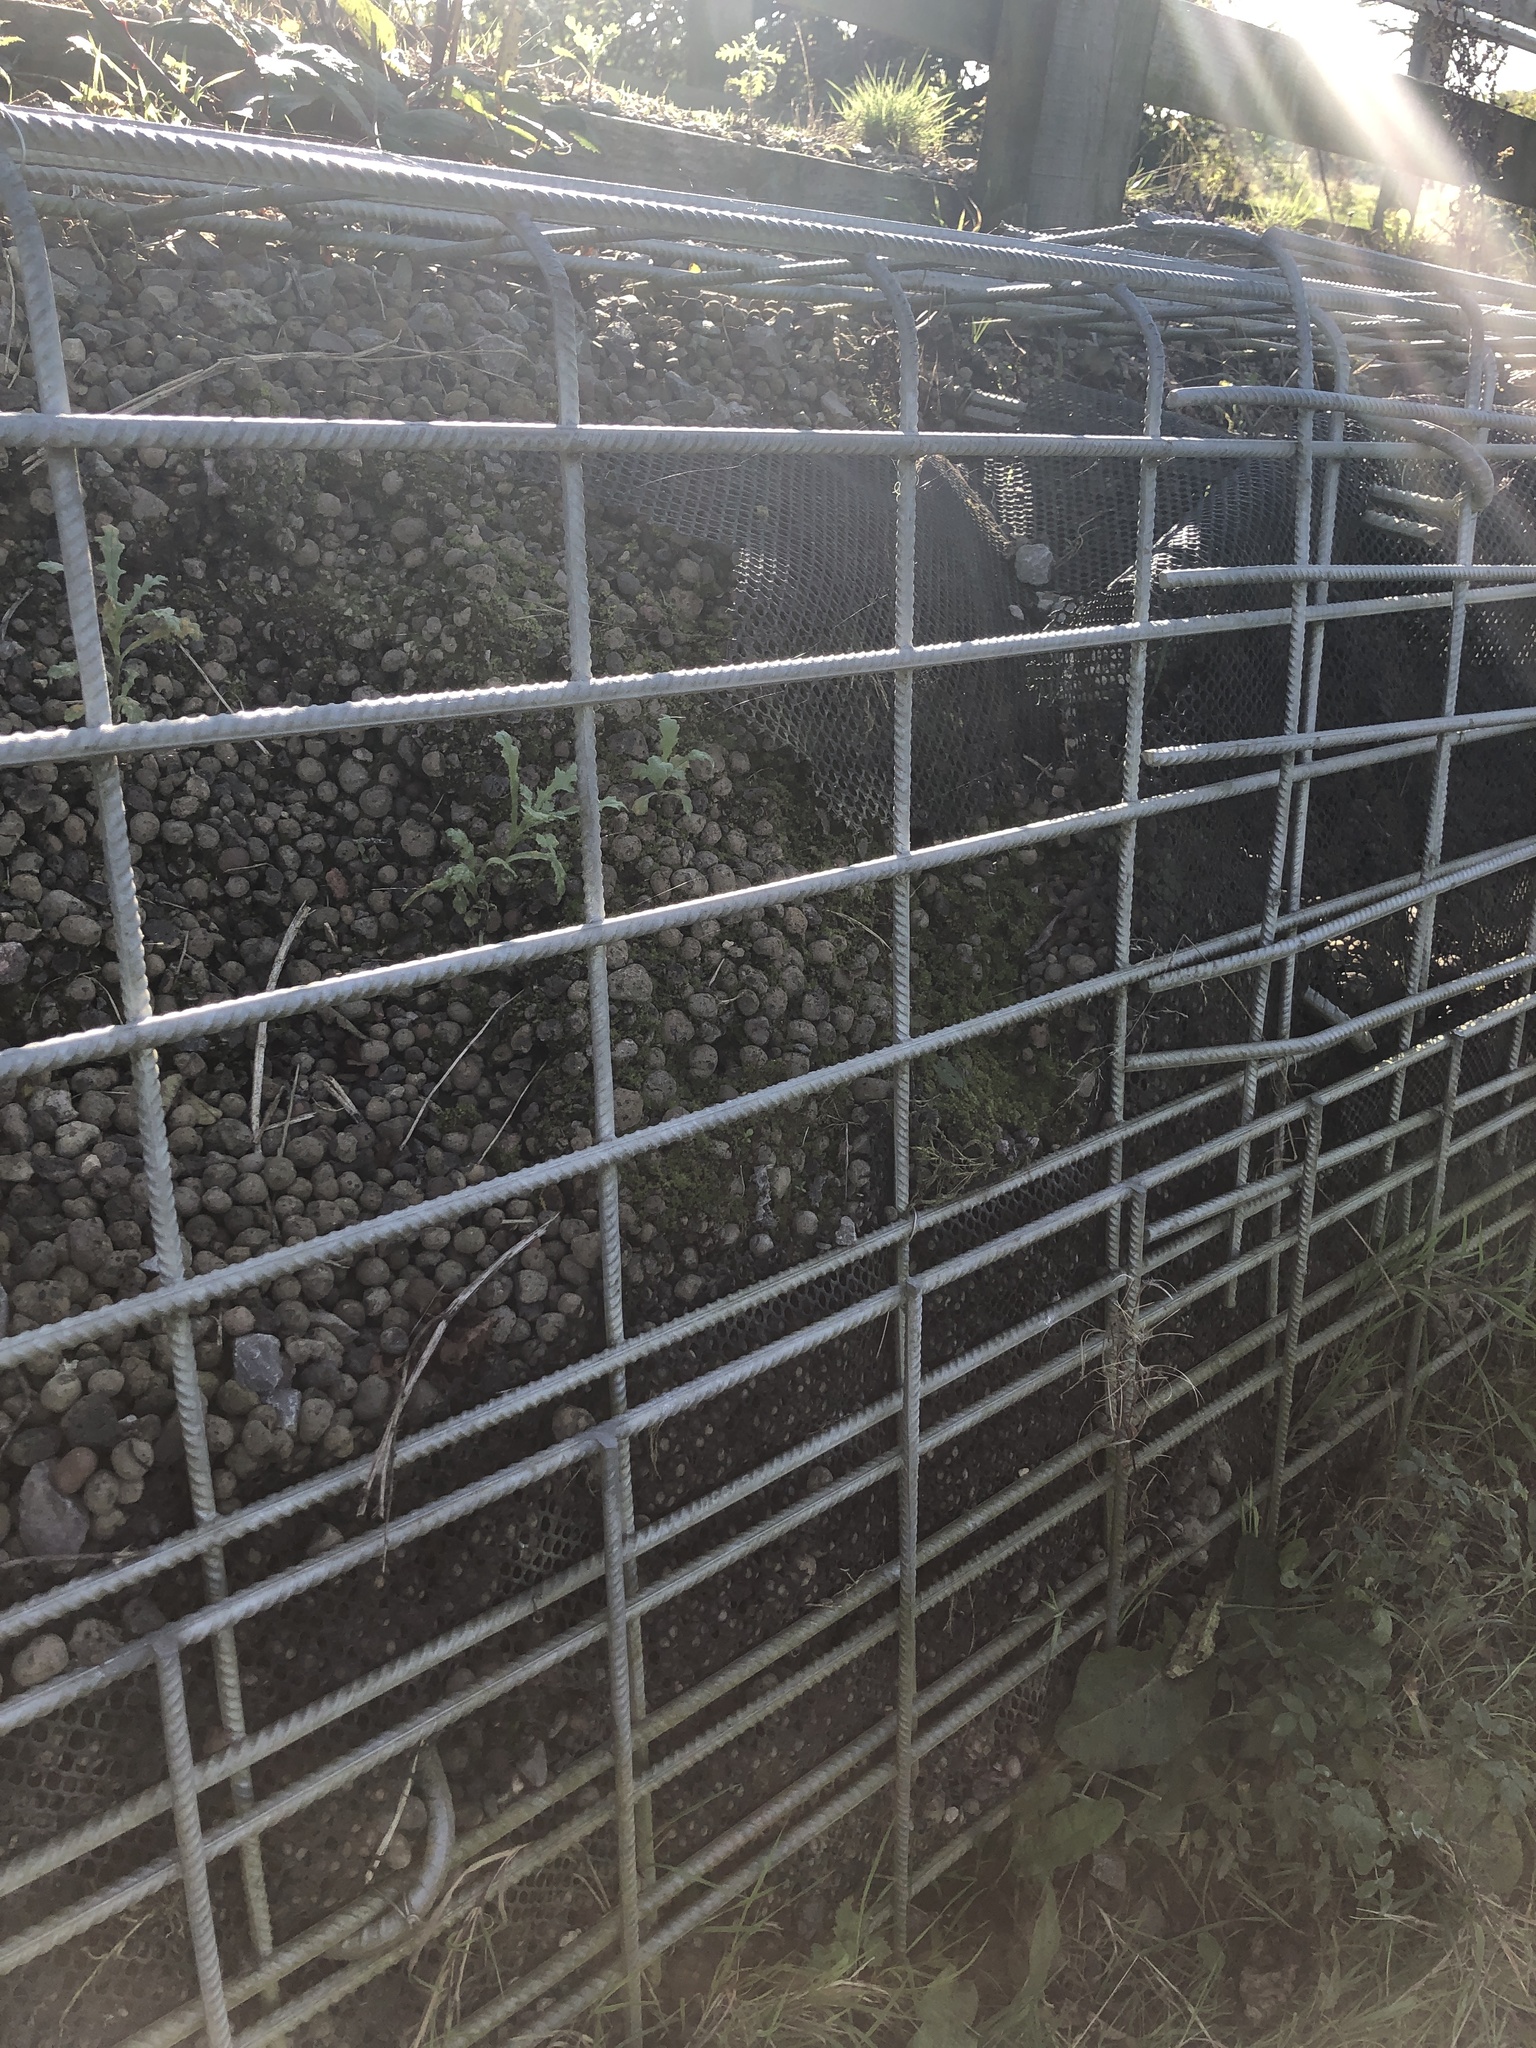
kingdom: Plantae
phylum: Bryophyta
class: Bryopsida
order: Funariales
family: Funariaceae
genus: Funaria
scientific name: Funaria hygrometrica
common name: Common cord moss
